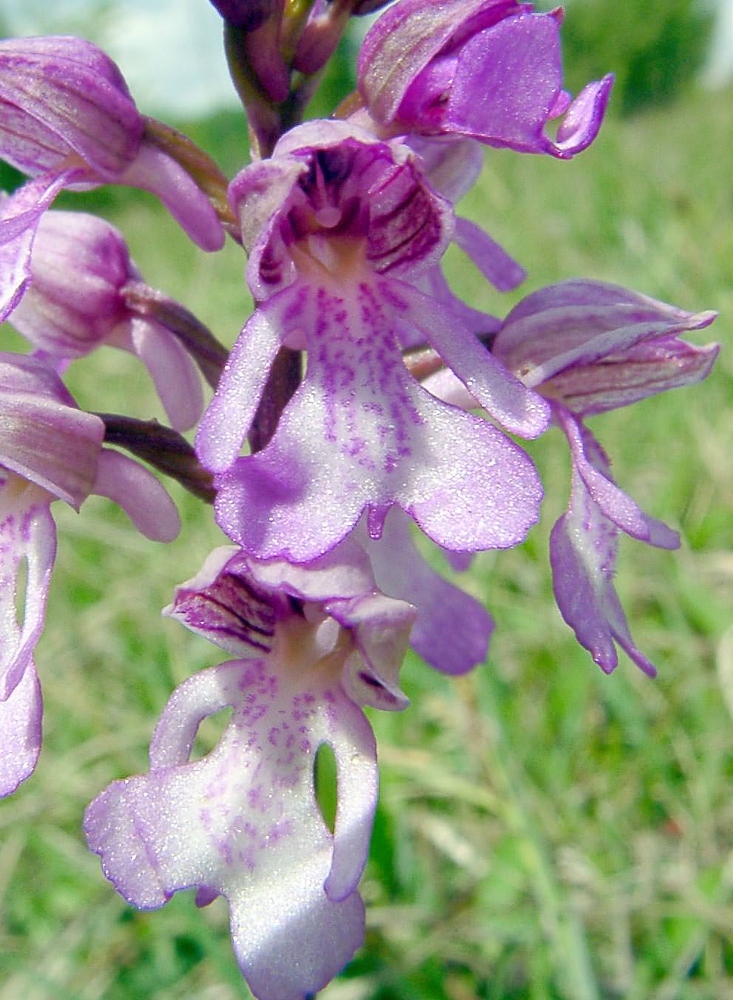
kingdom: Plantae
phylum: Tracheophyta
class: Liliopsida
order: Asparagales
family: Orchidaceae
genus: Orchis
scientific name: Orchis hybrida
